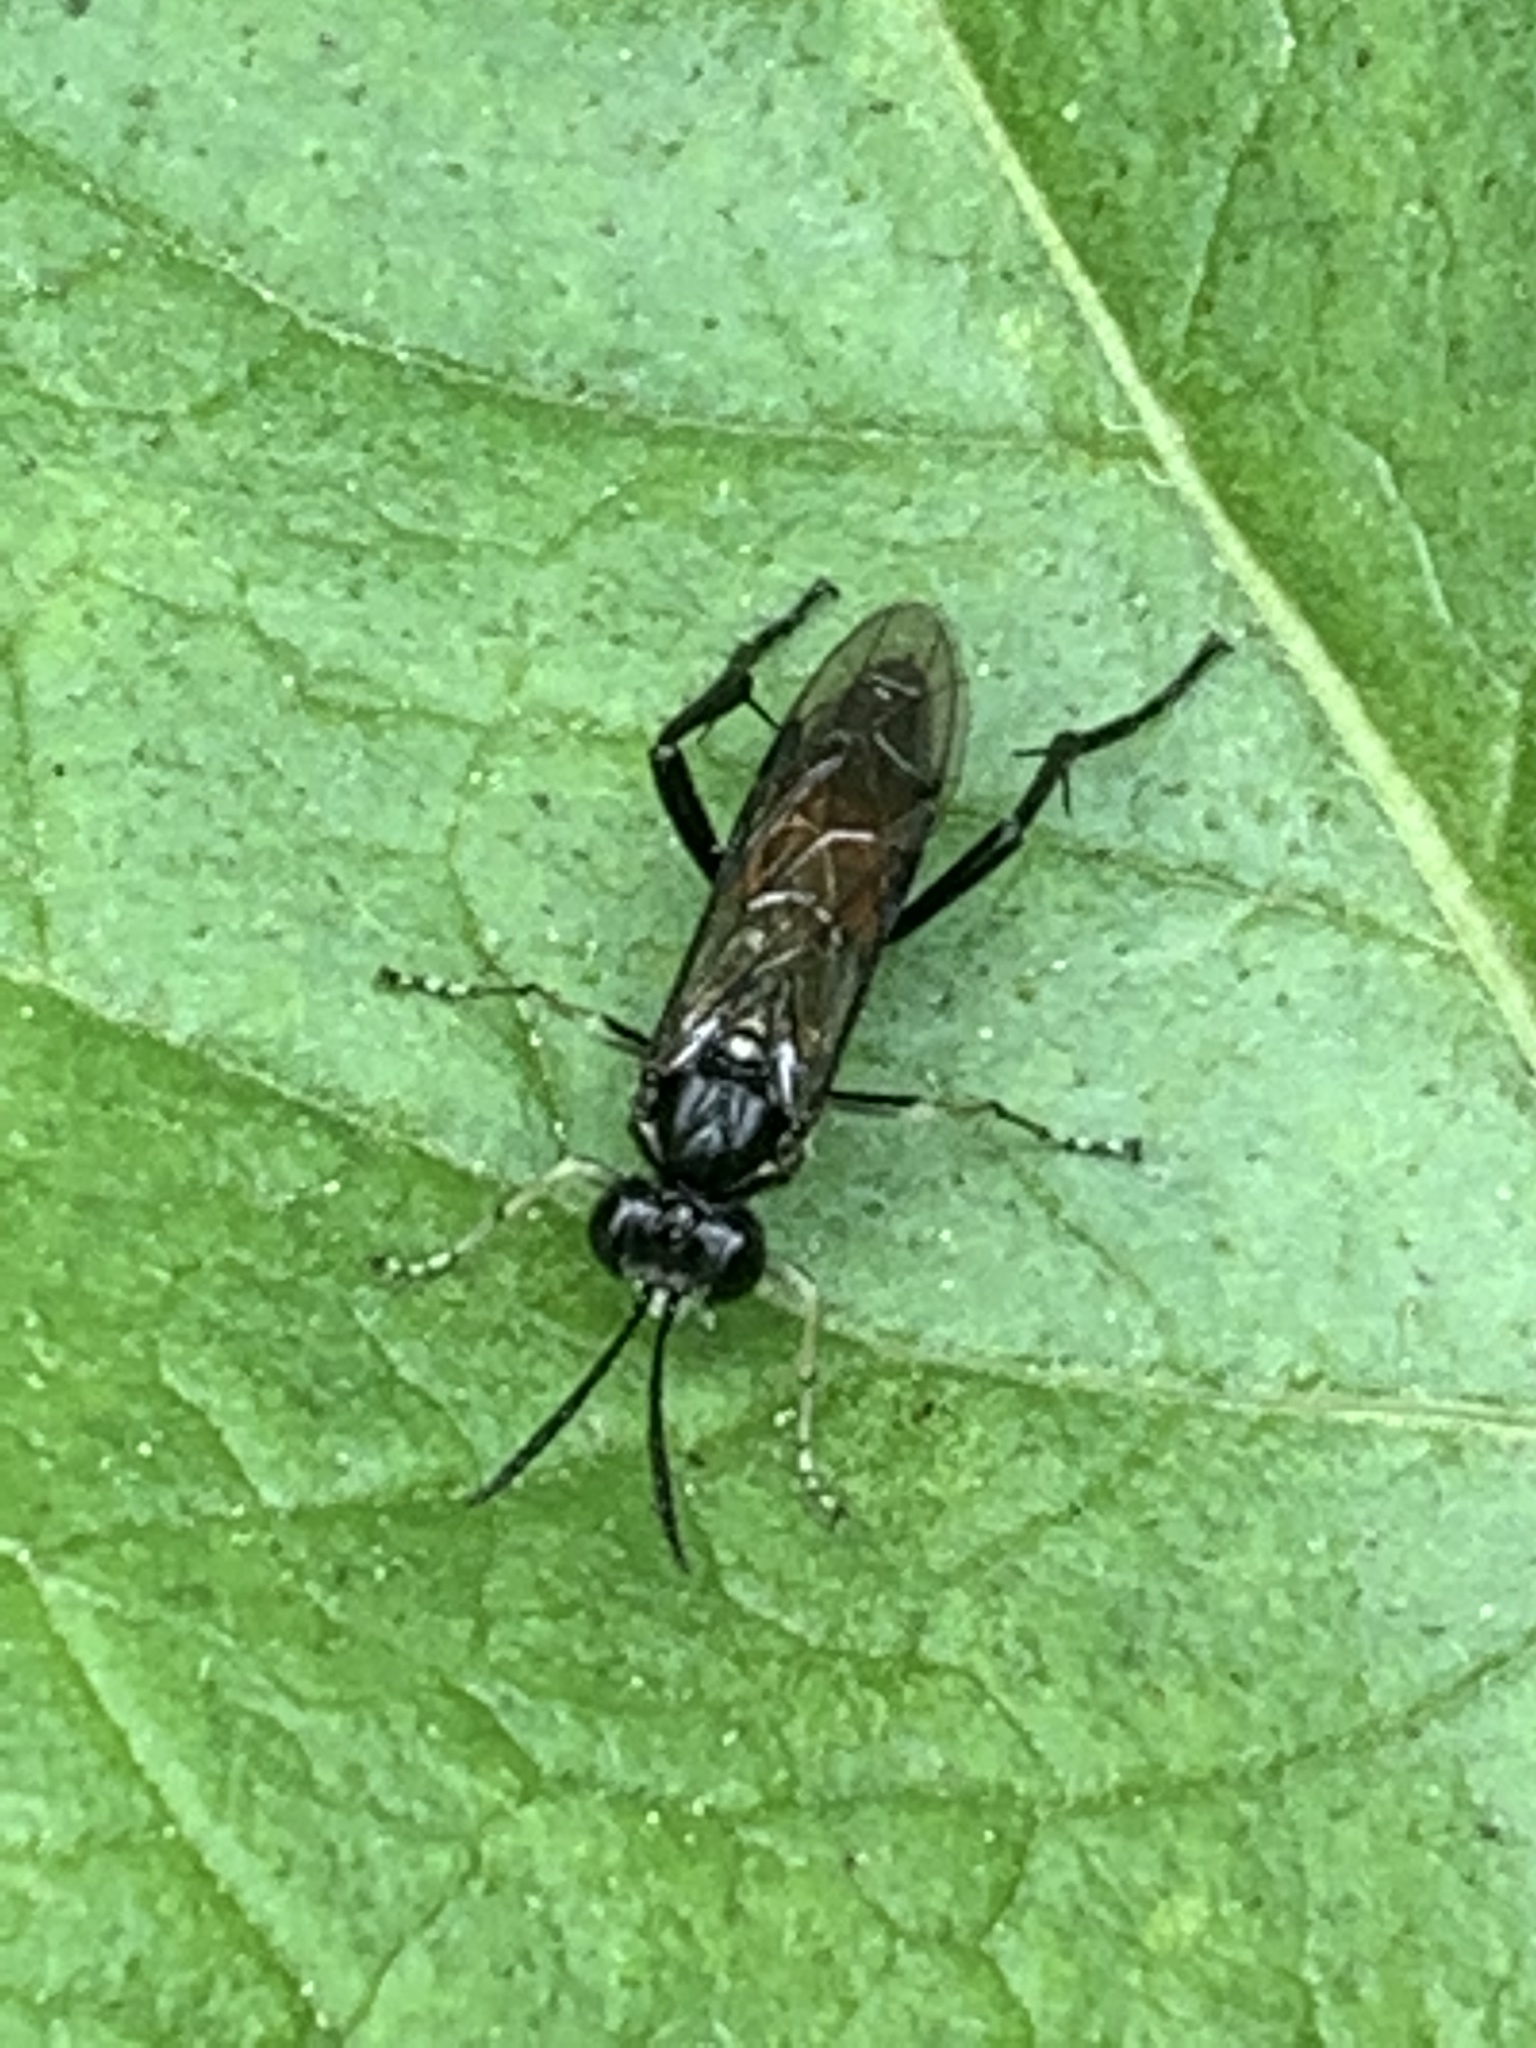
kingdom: Animalia
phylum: Arthropoda
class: Insecta
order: Hymenoptera
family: Tenthredinidae
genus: Macrophya
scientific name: Macrophya militaris
